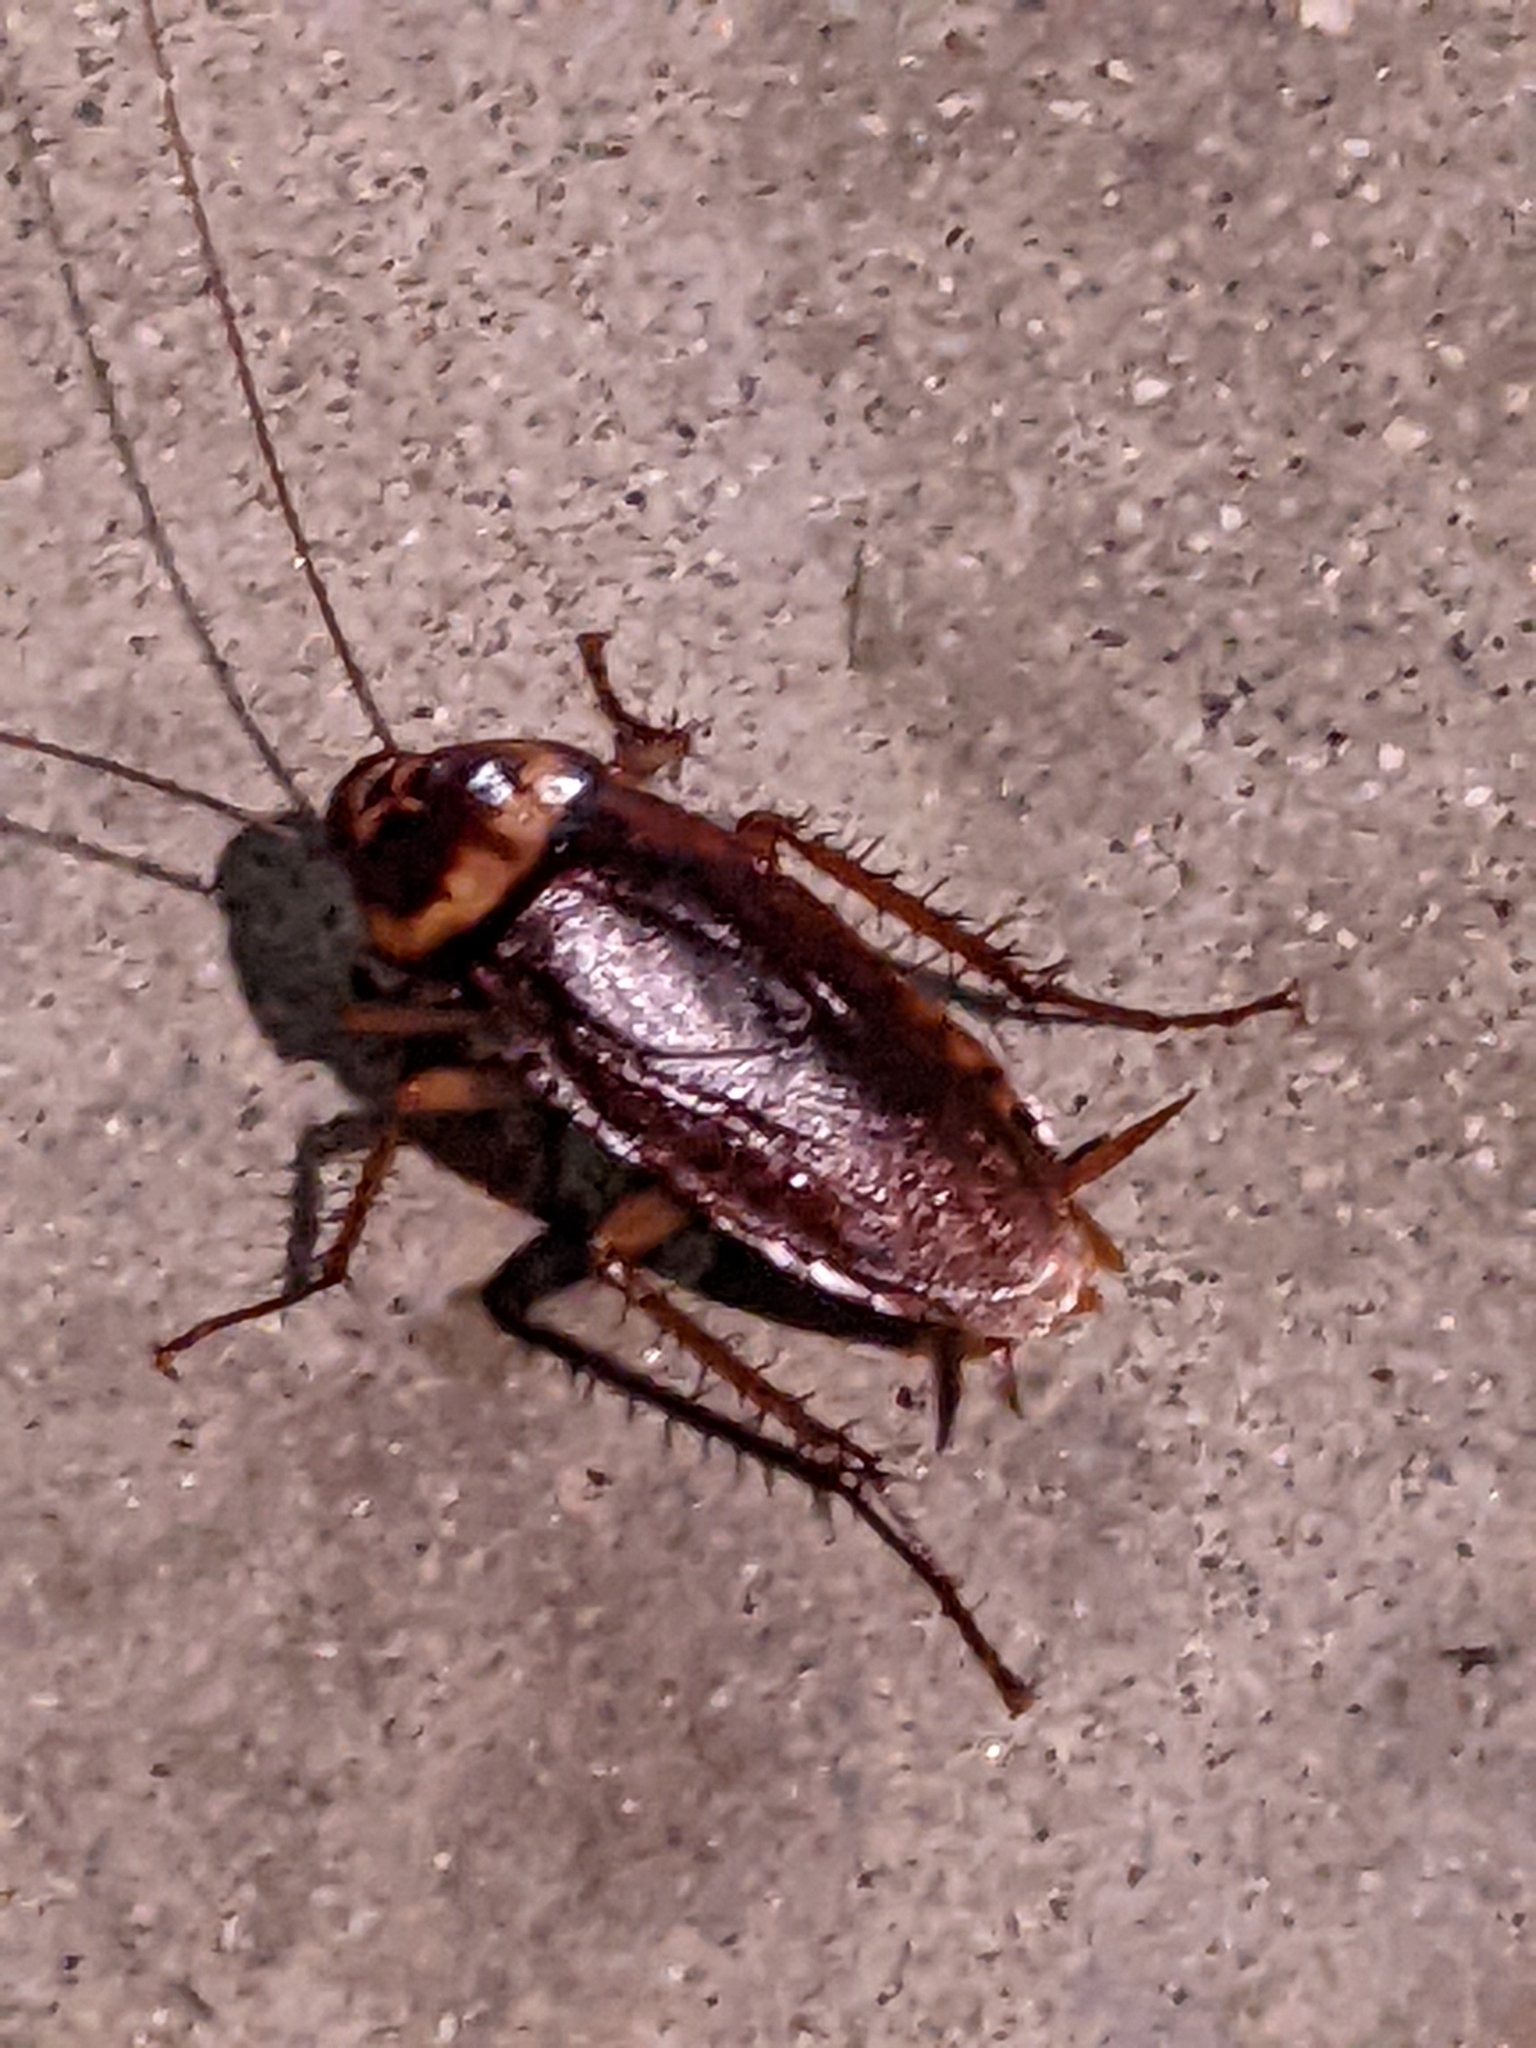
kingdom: Animalia
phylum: Arthropoda
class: Insecta
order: Blattodea
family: Blattidae
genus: Periplaneta
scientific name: Periplaneta americana
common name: American cockroach
